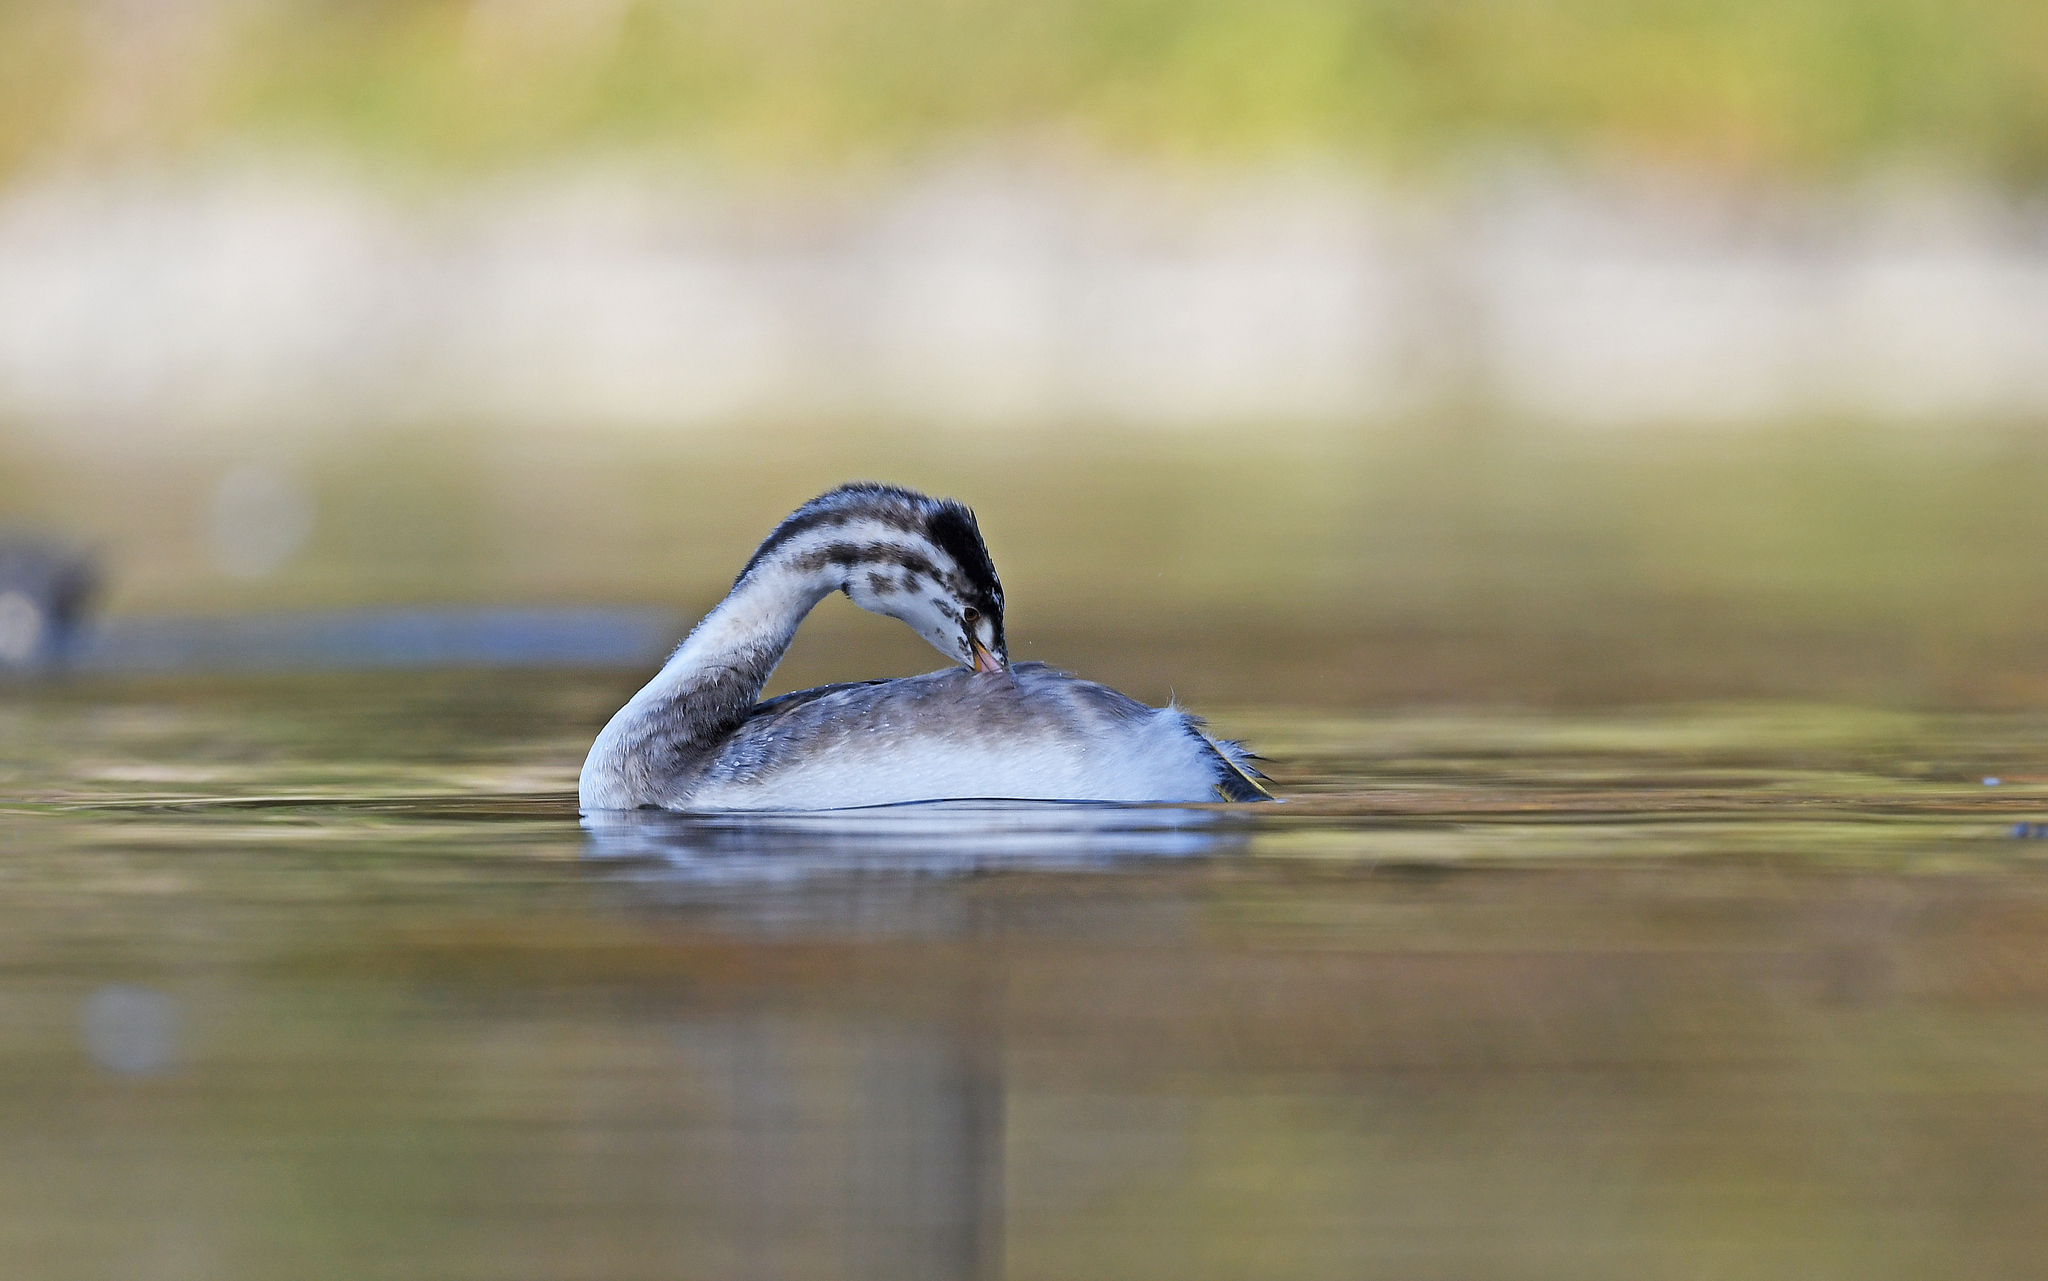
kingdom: Animalia
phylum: Chordata
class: Aves
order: Podicipediformes
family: Podicipedidae
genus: Podiceps
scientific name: Podiceps cristatus
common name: Great crested grebe
